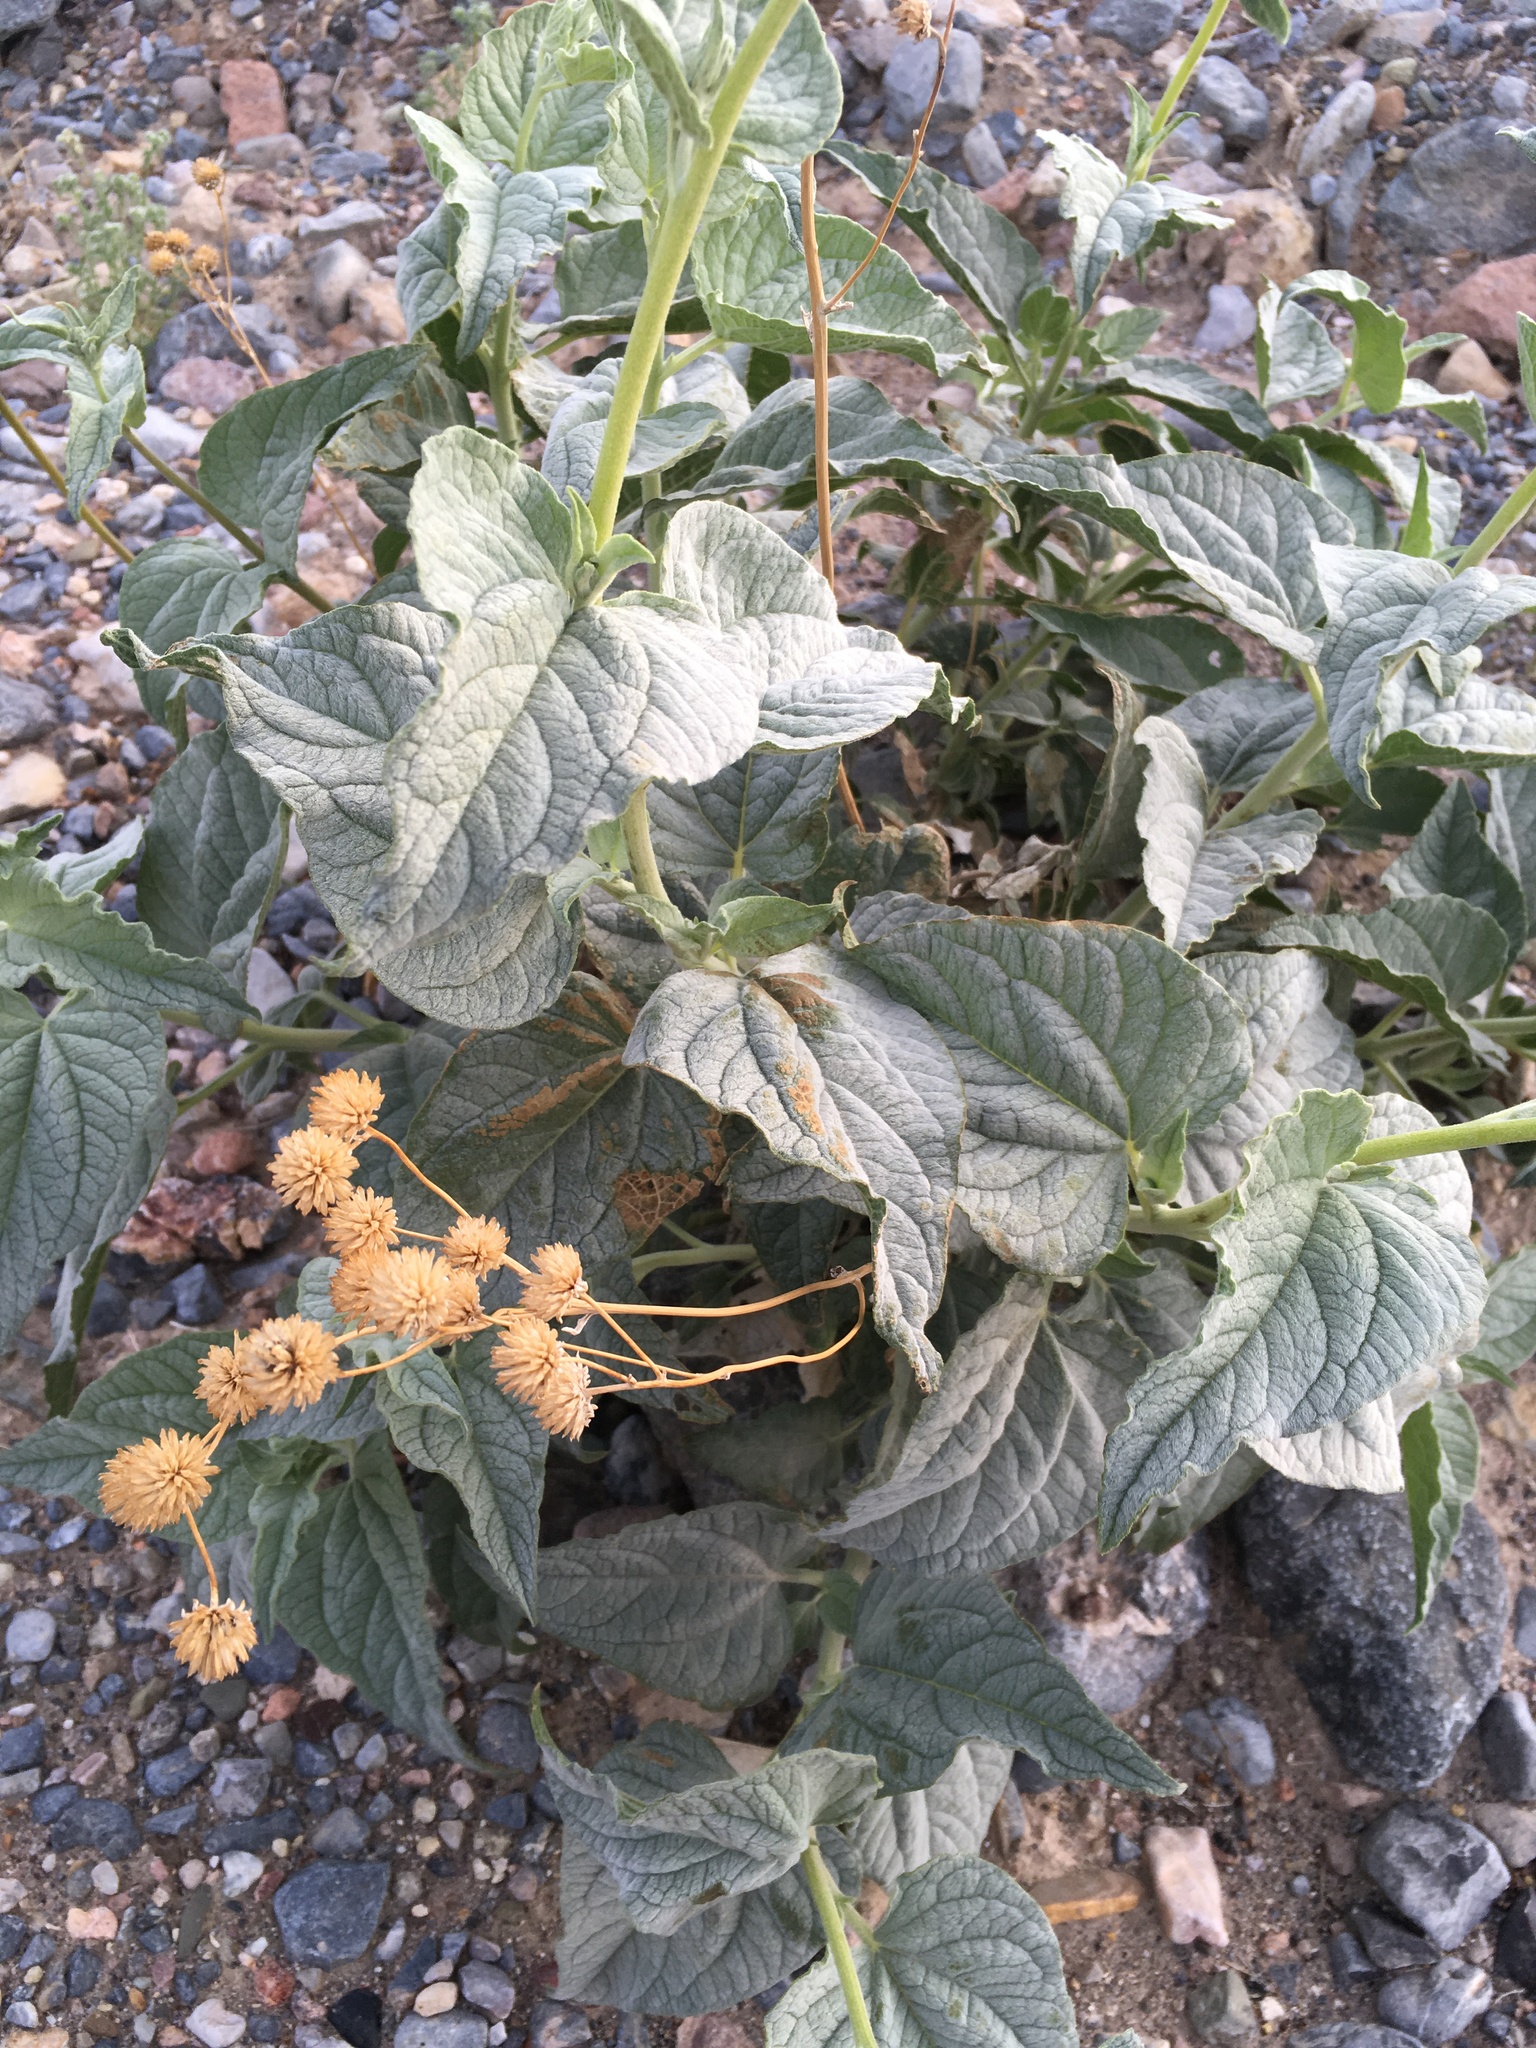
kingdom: Plantae
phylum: Tracheophyta
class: Magnoliopsida
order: Asterales
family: Asteraceae
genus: Bahiopsis
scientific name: Bahiopsis reticulata
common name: Death valley goldeneye
